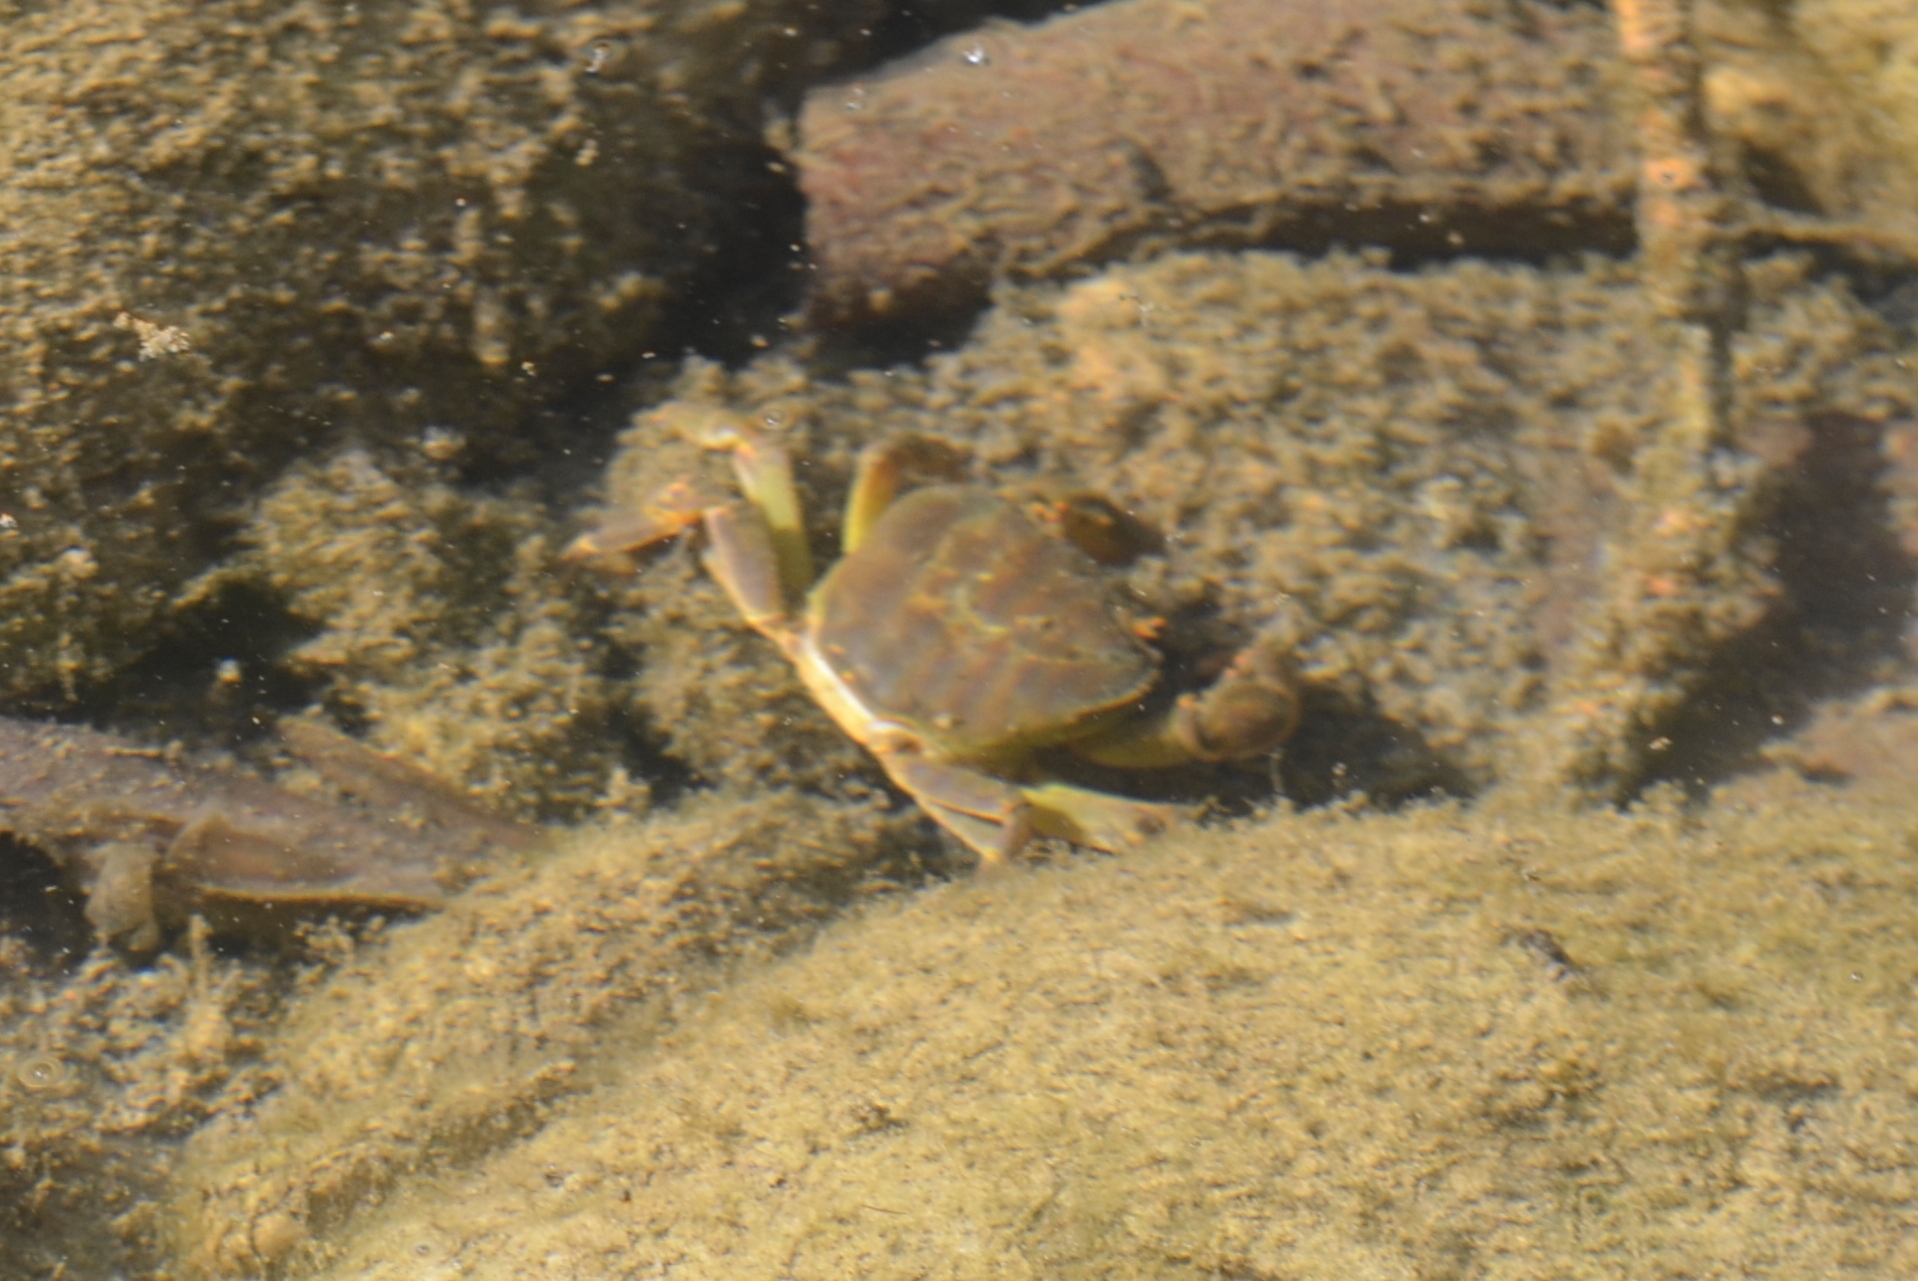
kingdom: Animalia
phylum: Arthropoda
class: Malacostraca
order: Decapoda
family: Potamidae
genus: Potamon
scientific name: Potamon algeriense
